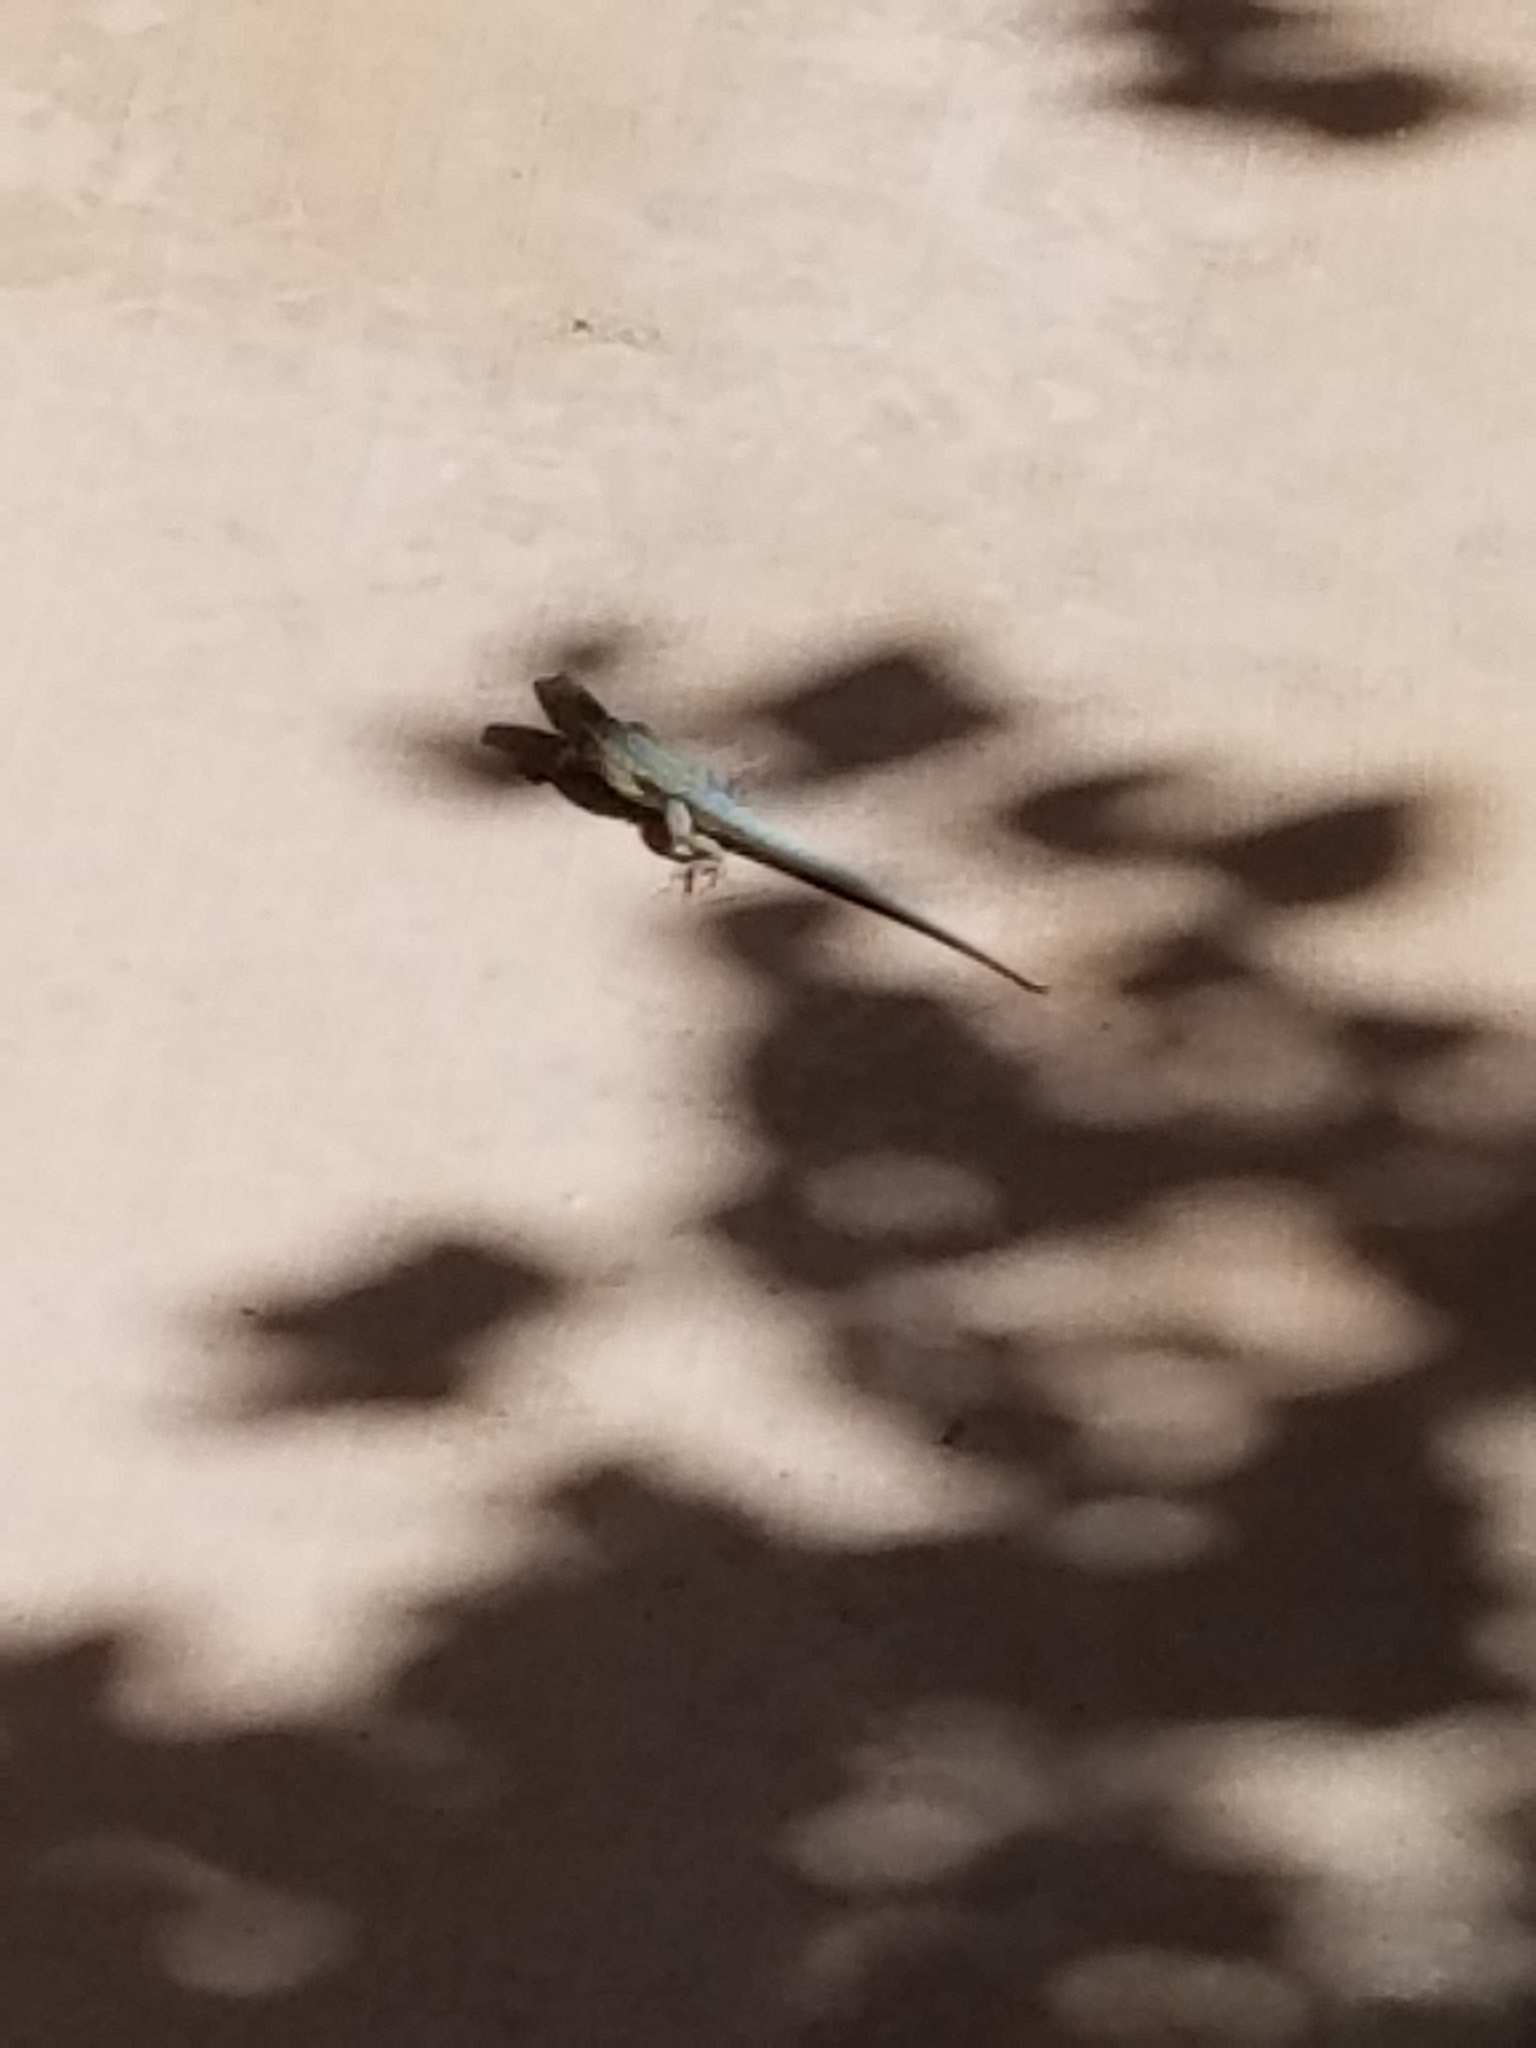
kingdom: Animalia
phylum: Chordata
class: Squamata
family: Phrynosomatidae
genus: Uta
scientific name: Uta stansburiana
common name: Side-blotched lizard
